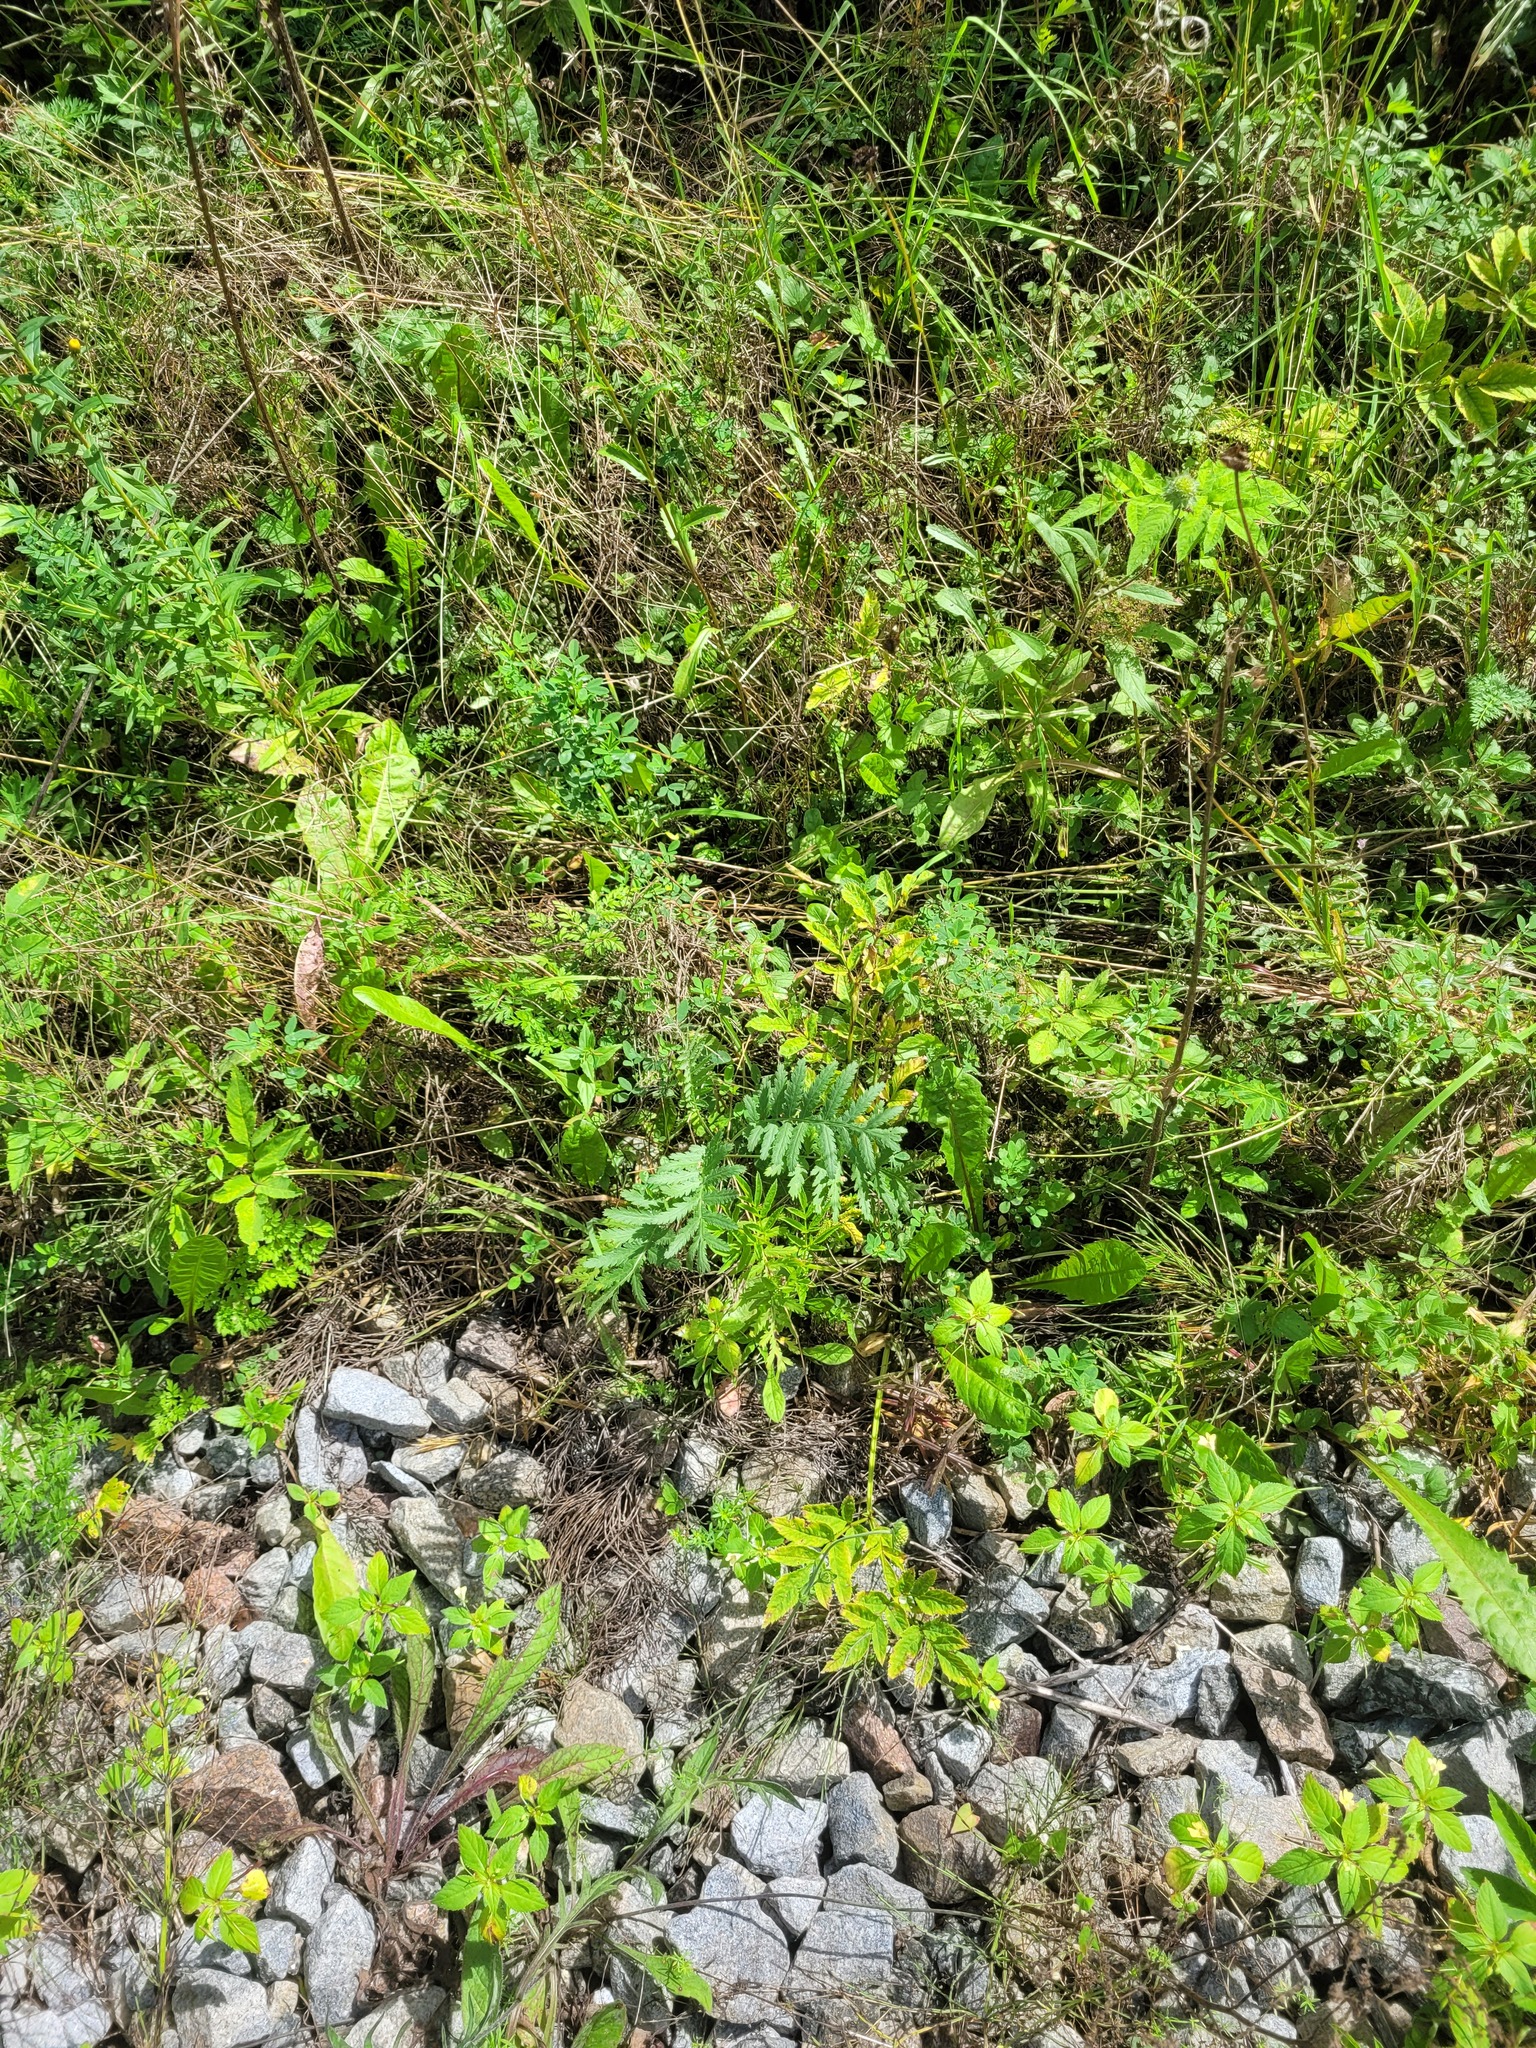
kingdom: Plantae
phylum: Tracheophyta
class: Magnoliopsida
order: Asterales
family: Asteraceae
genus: Tanacetum
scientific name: Tanacetum vulgare
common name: Common tansy
